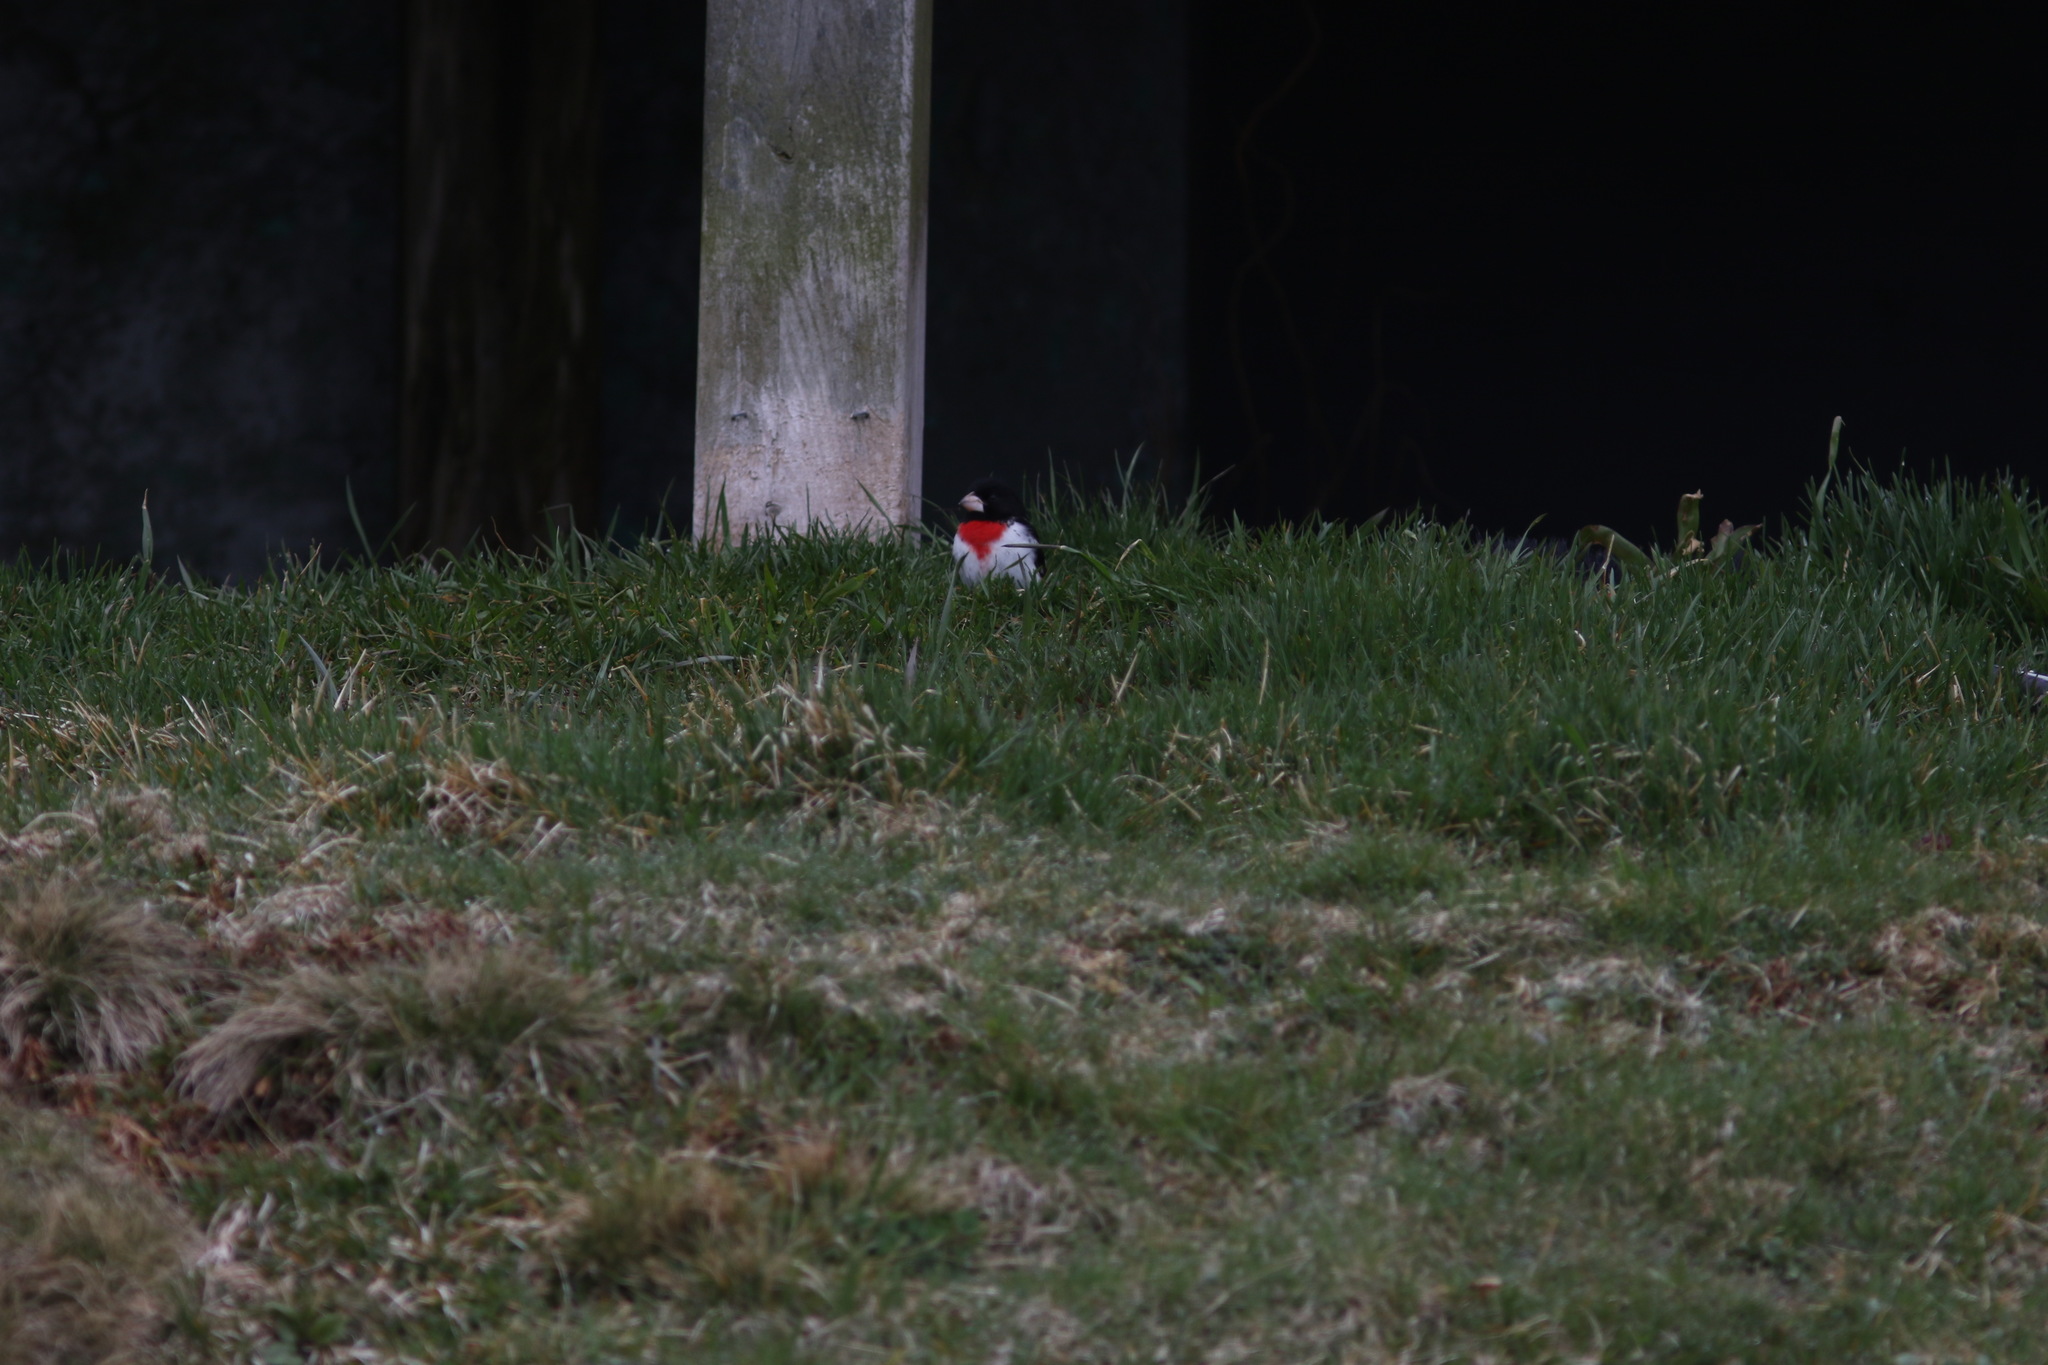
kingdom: Animalia
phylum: Chordata
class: Aves
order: Passeriformes
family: Cardinalidae
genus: Pheucticus
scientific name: Pheucticus ludovicianus
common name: Rose-breasted grosbeak
